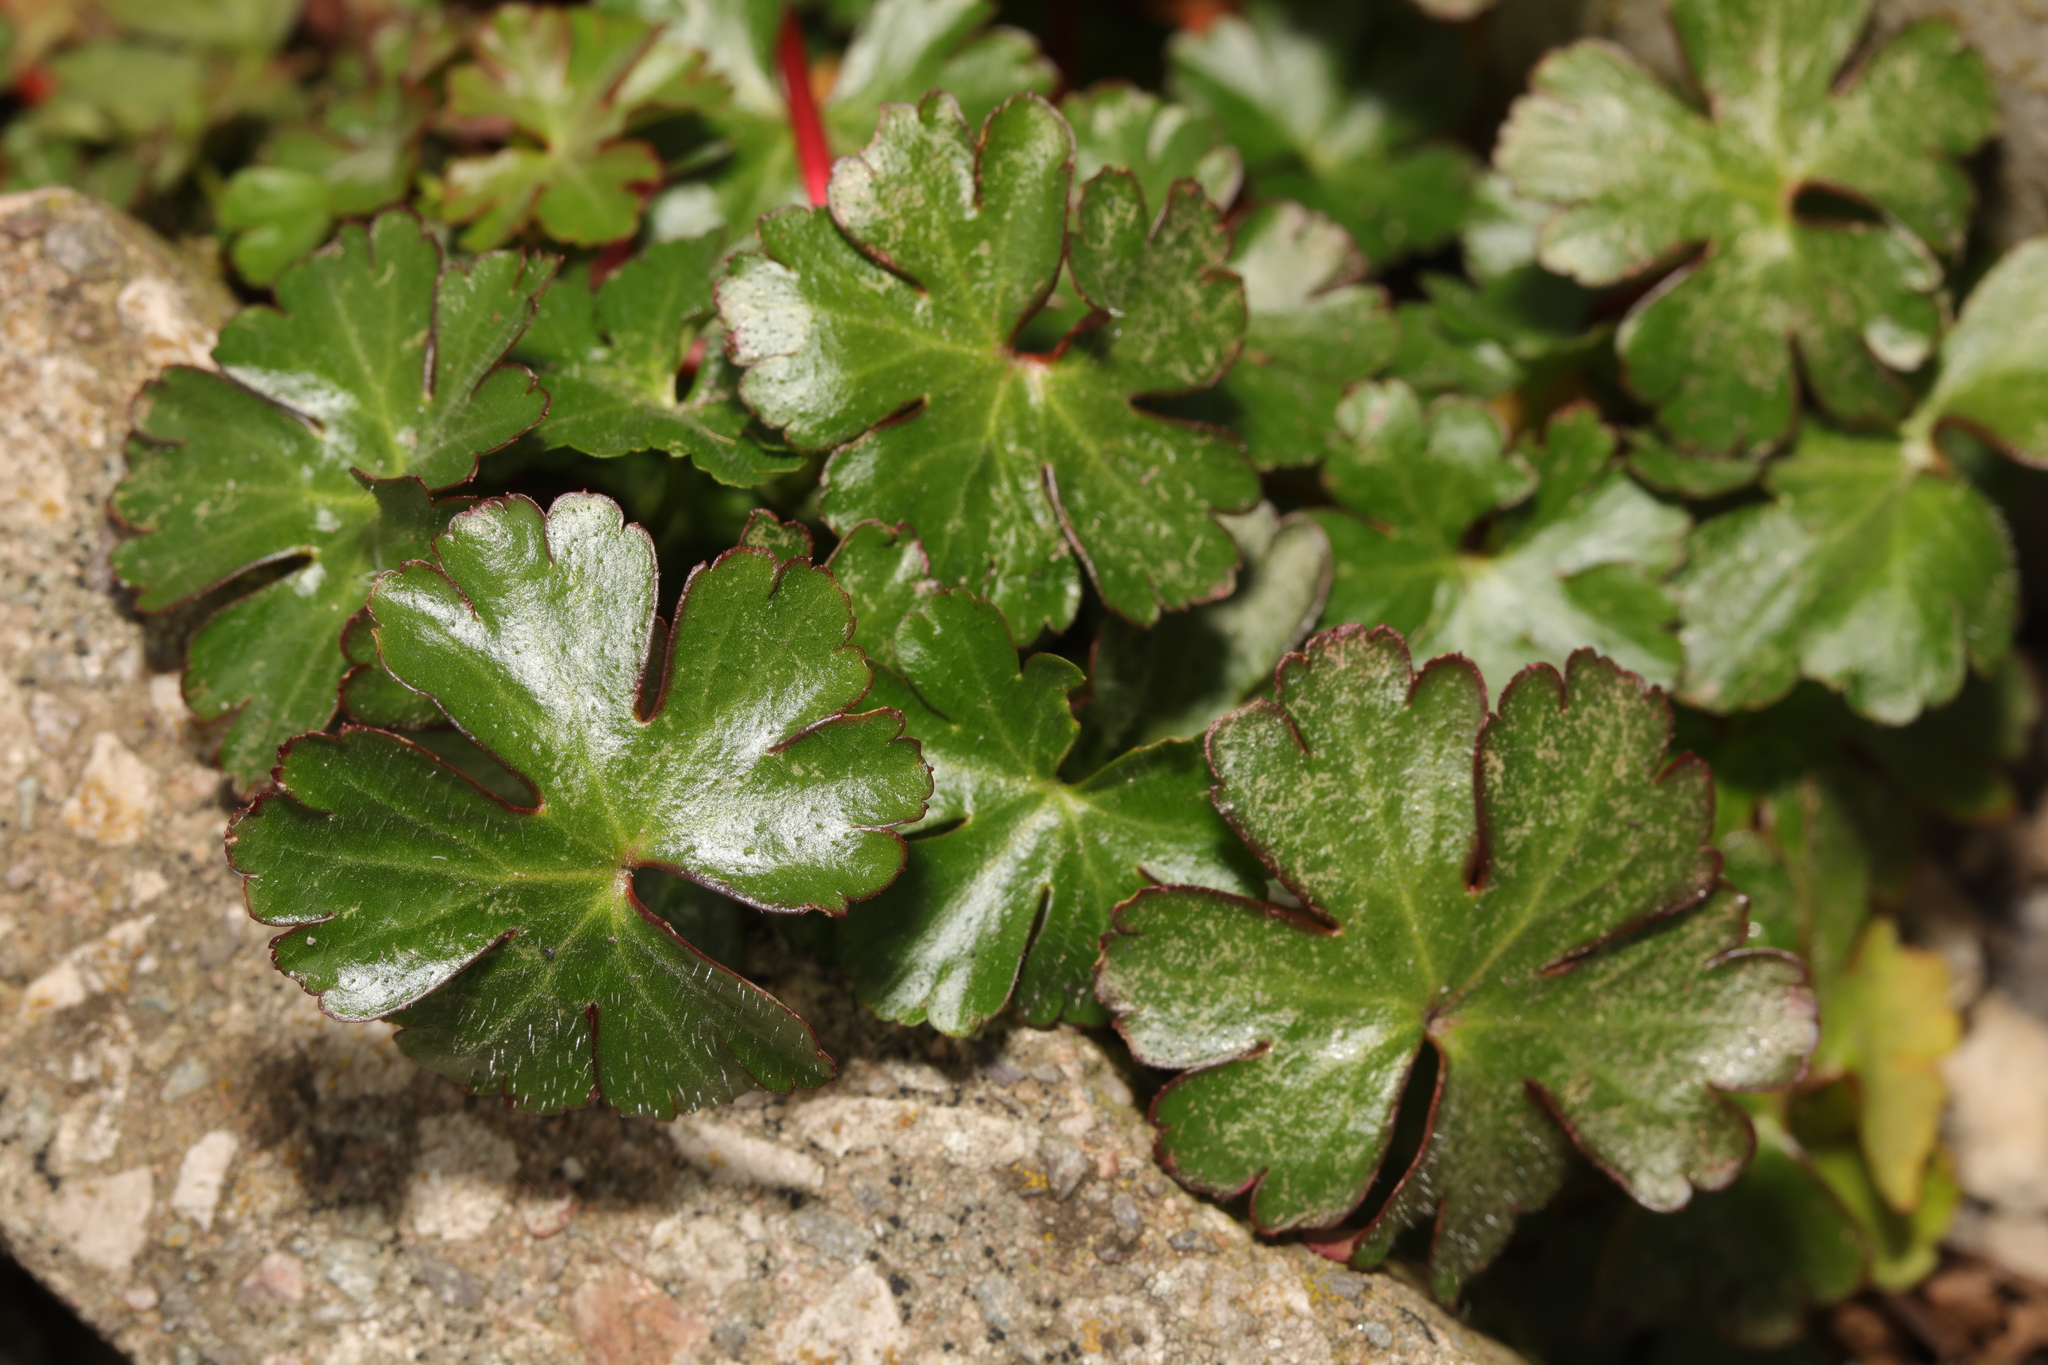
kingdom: Plantae
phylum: Tracheophyta
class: Magnoliopsida
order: Geraniales
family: Geraniaceae
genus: Geranium
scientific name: Geranium lucidum
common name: Shining crane's-bill
